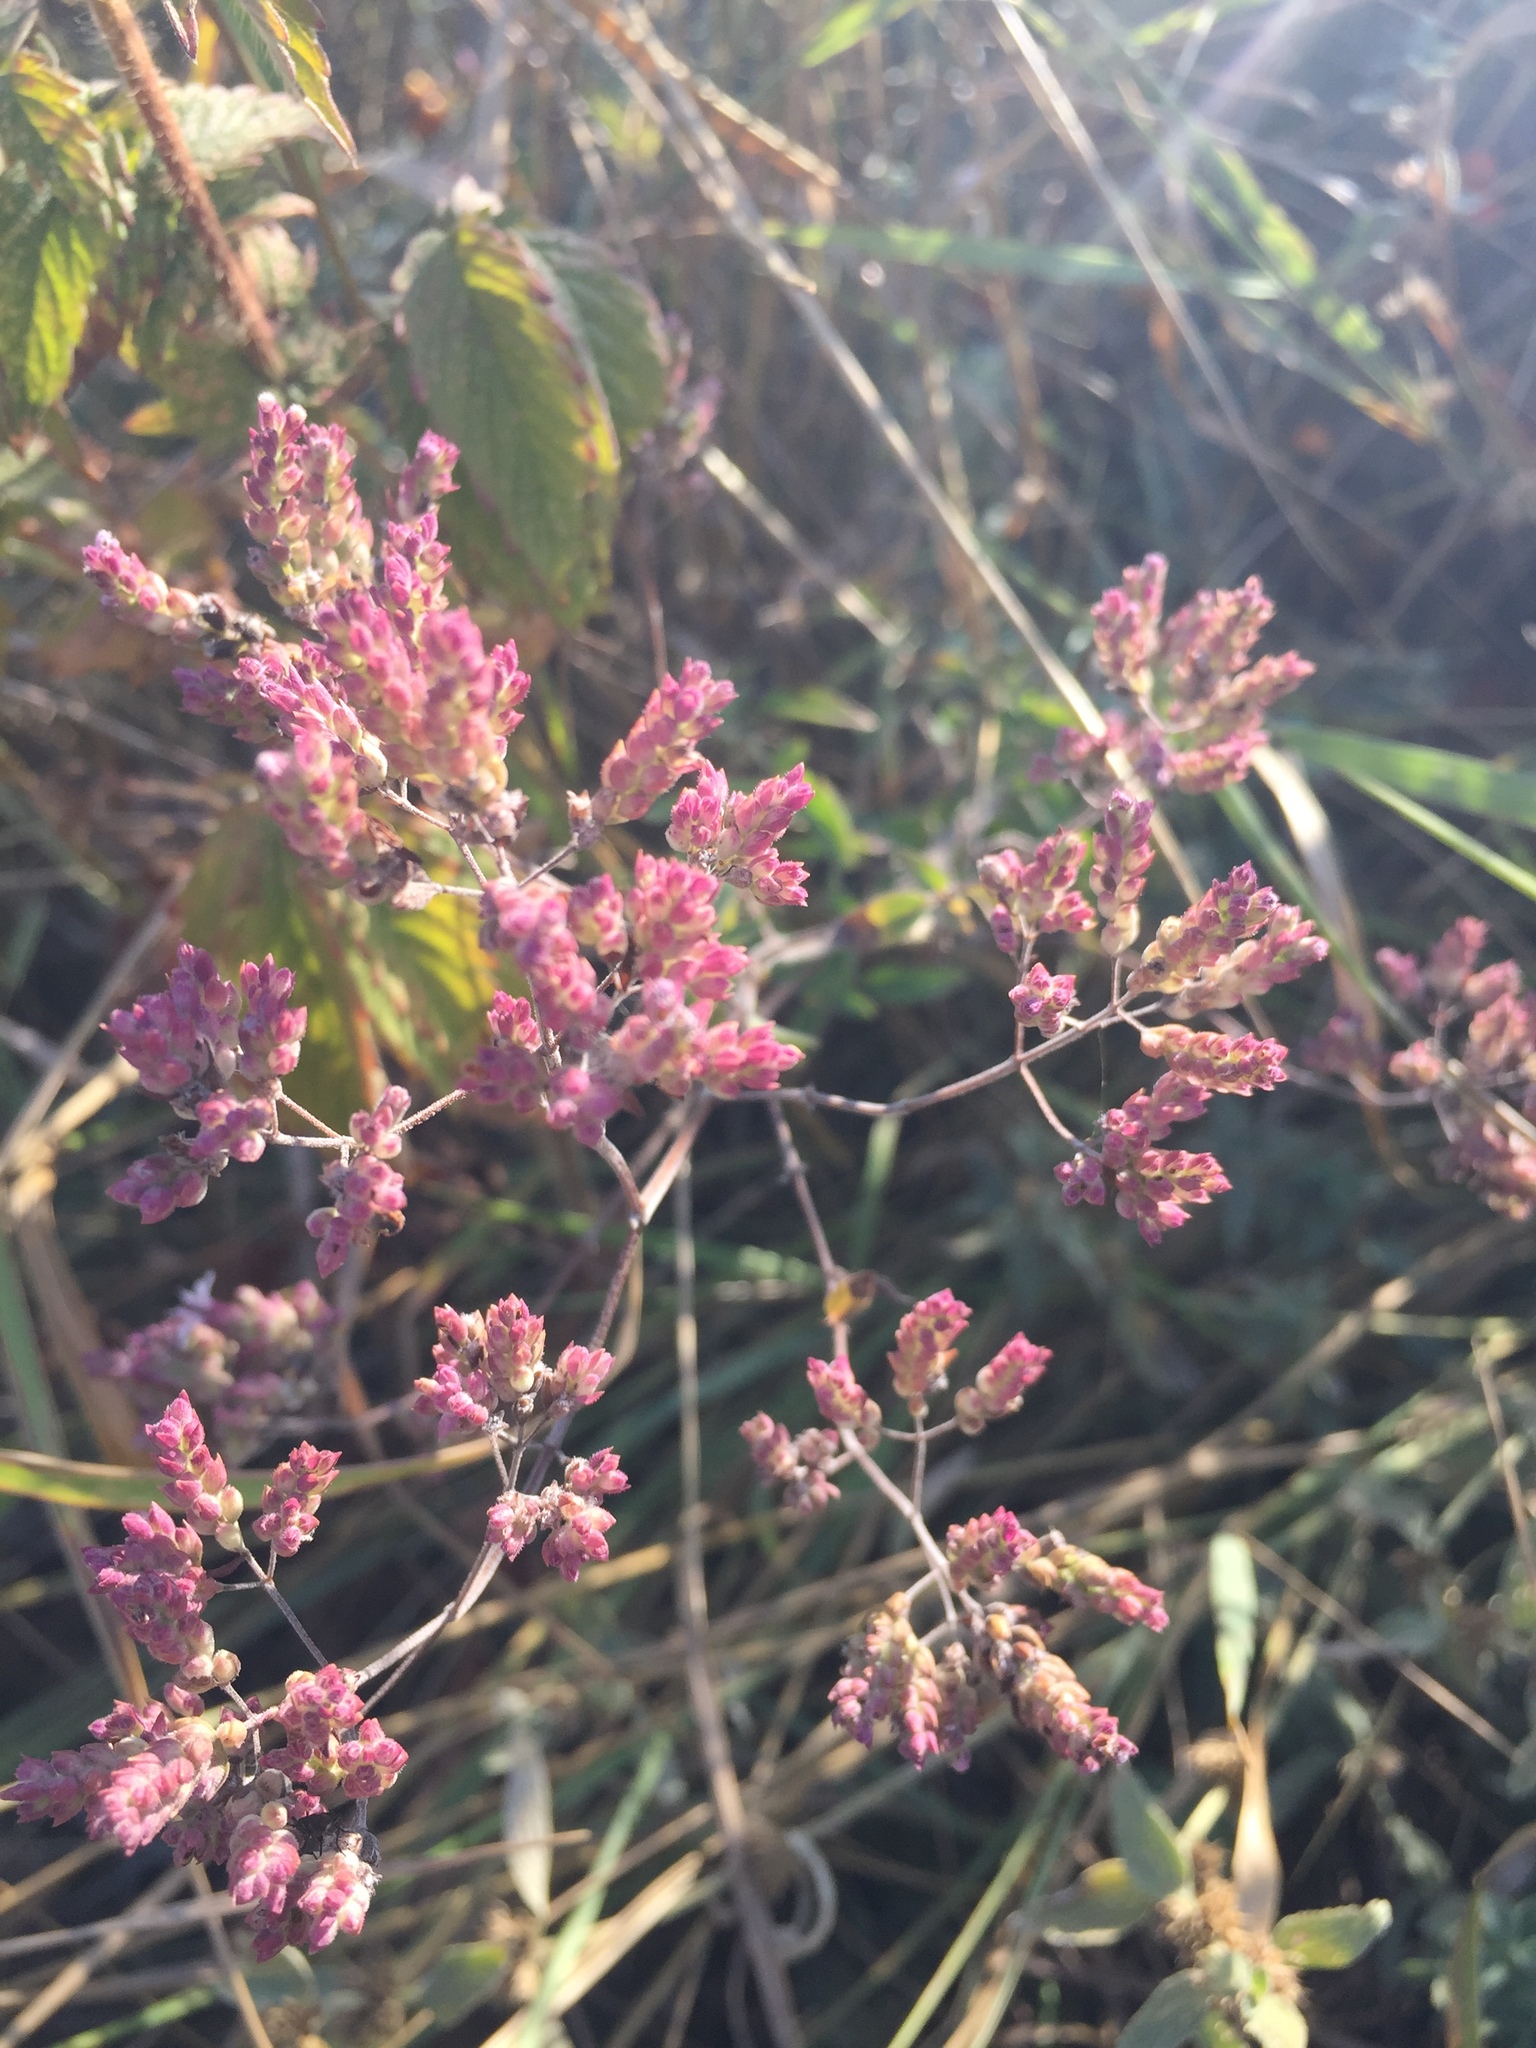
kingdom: Plantae
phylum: Tracheophyta
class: Magnoliopsida
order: Lamiales
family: Lamiaceae
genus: Origanum
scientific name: Origanum vulgare
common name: Wild marjoram
